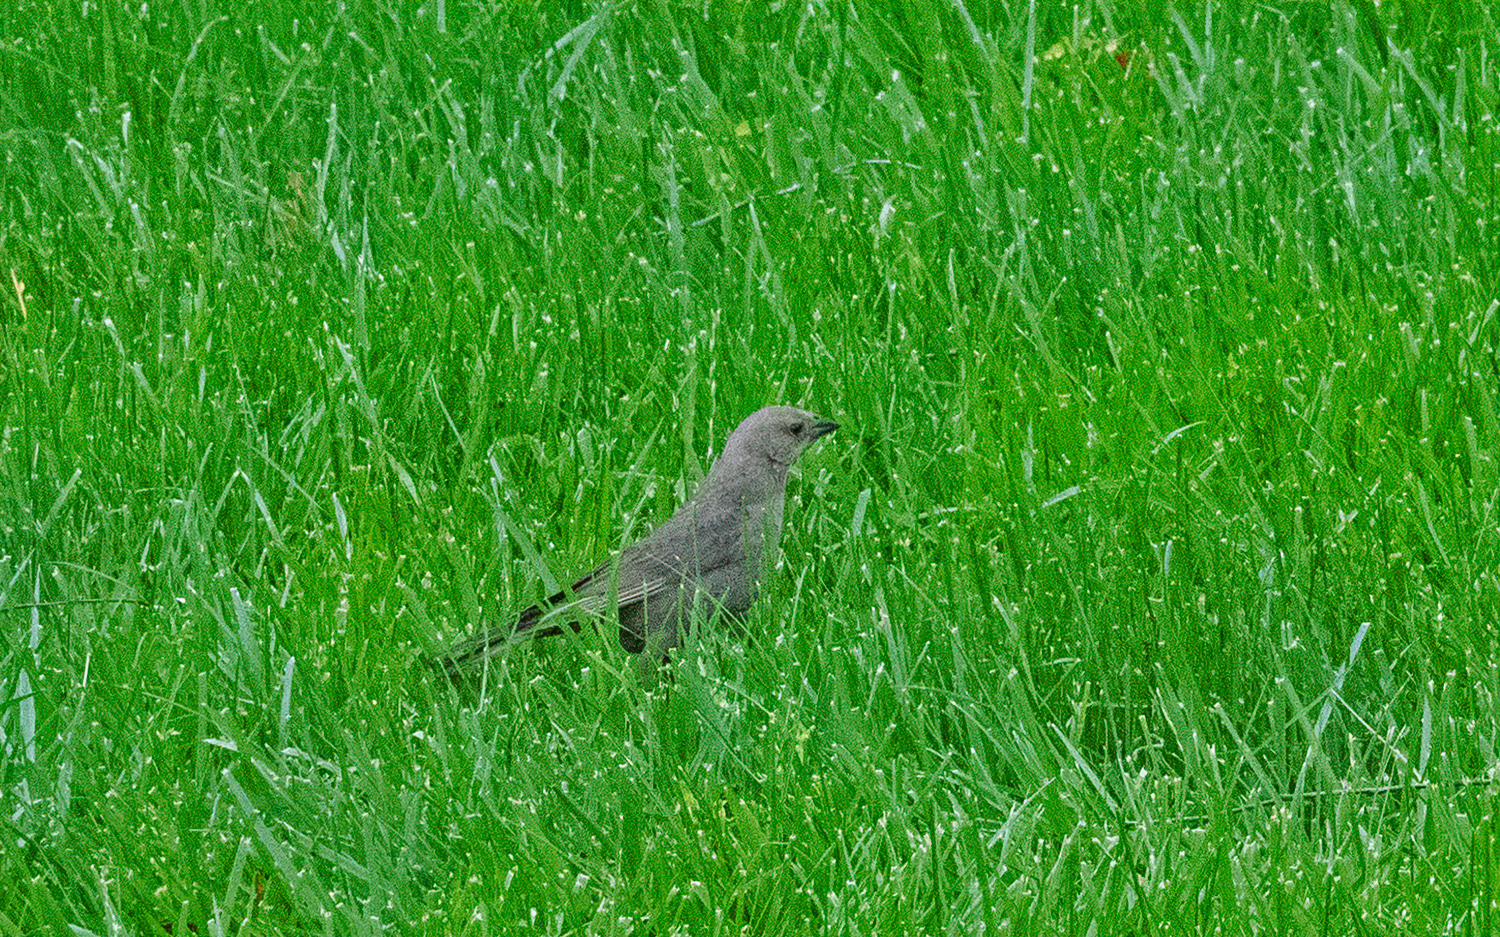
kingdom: Animalia
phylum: Chordata
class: Aves
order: Passeriformes
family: Icteridae
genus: Molothrus
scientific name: Molothrus ater
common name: Brown-headed cowbird
